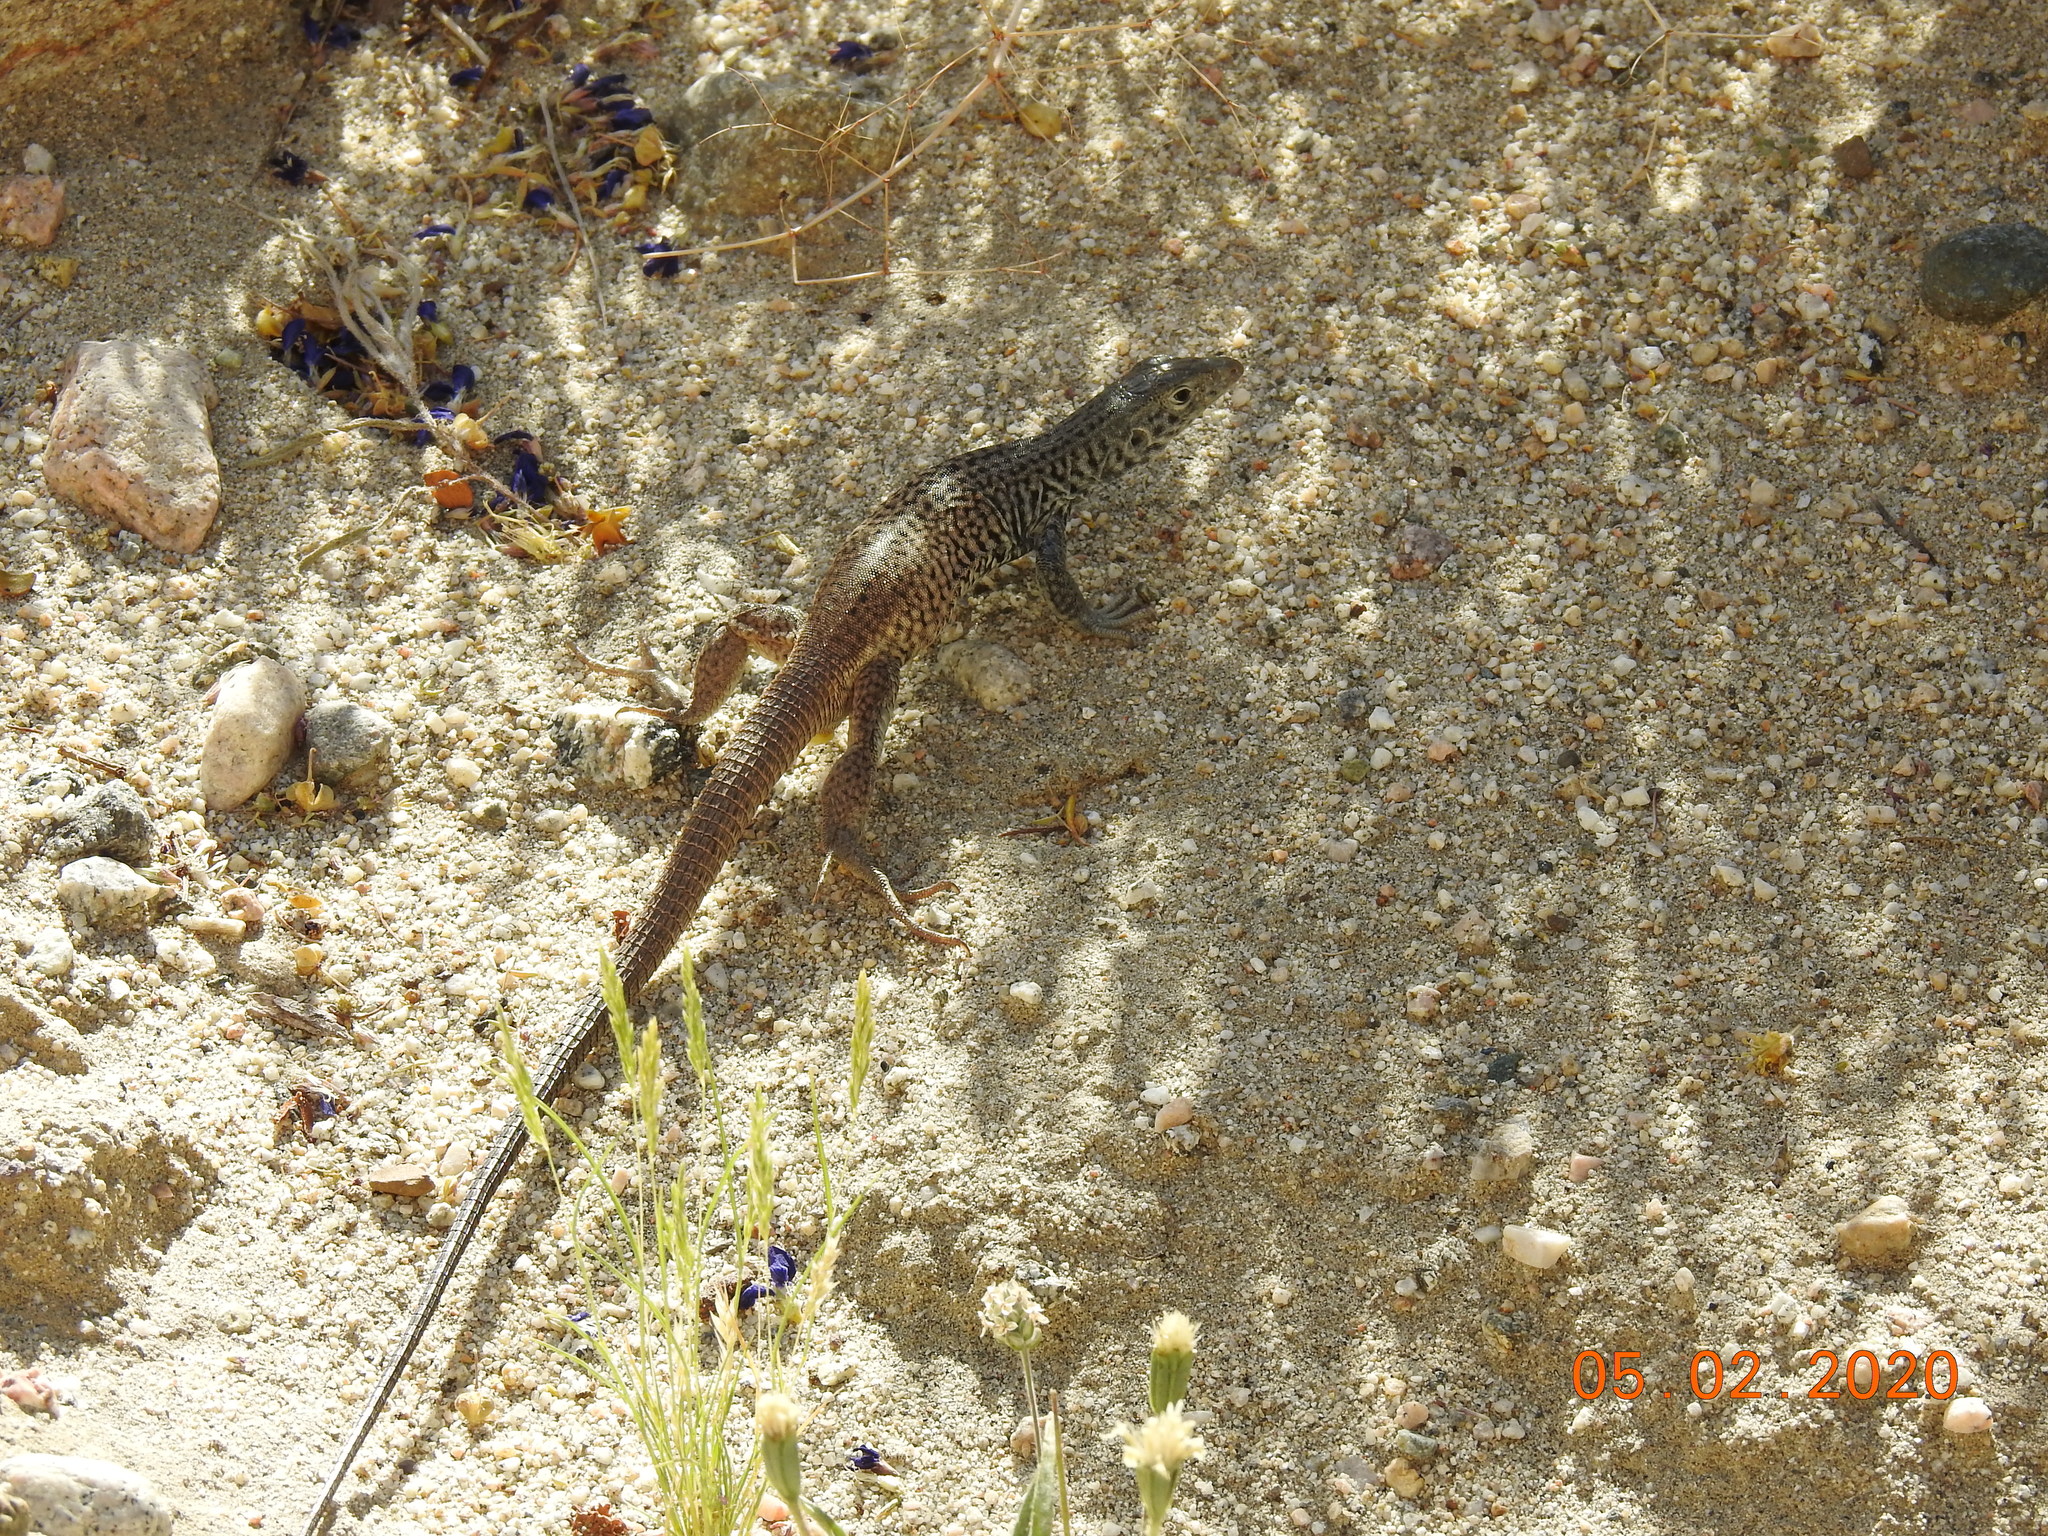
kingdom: Animalia
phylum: Chordata
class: Squamata
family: Teiidae
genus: Aspidoscelis
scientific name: Aspidoscelis tigris
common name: Tiger whiptail
